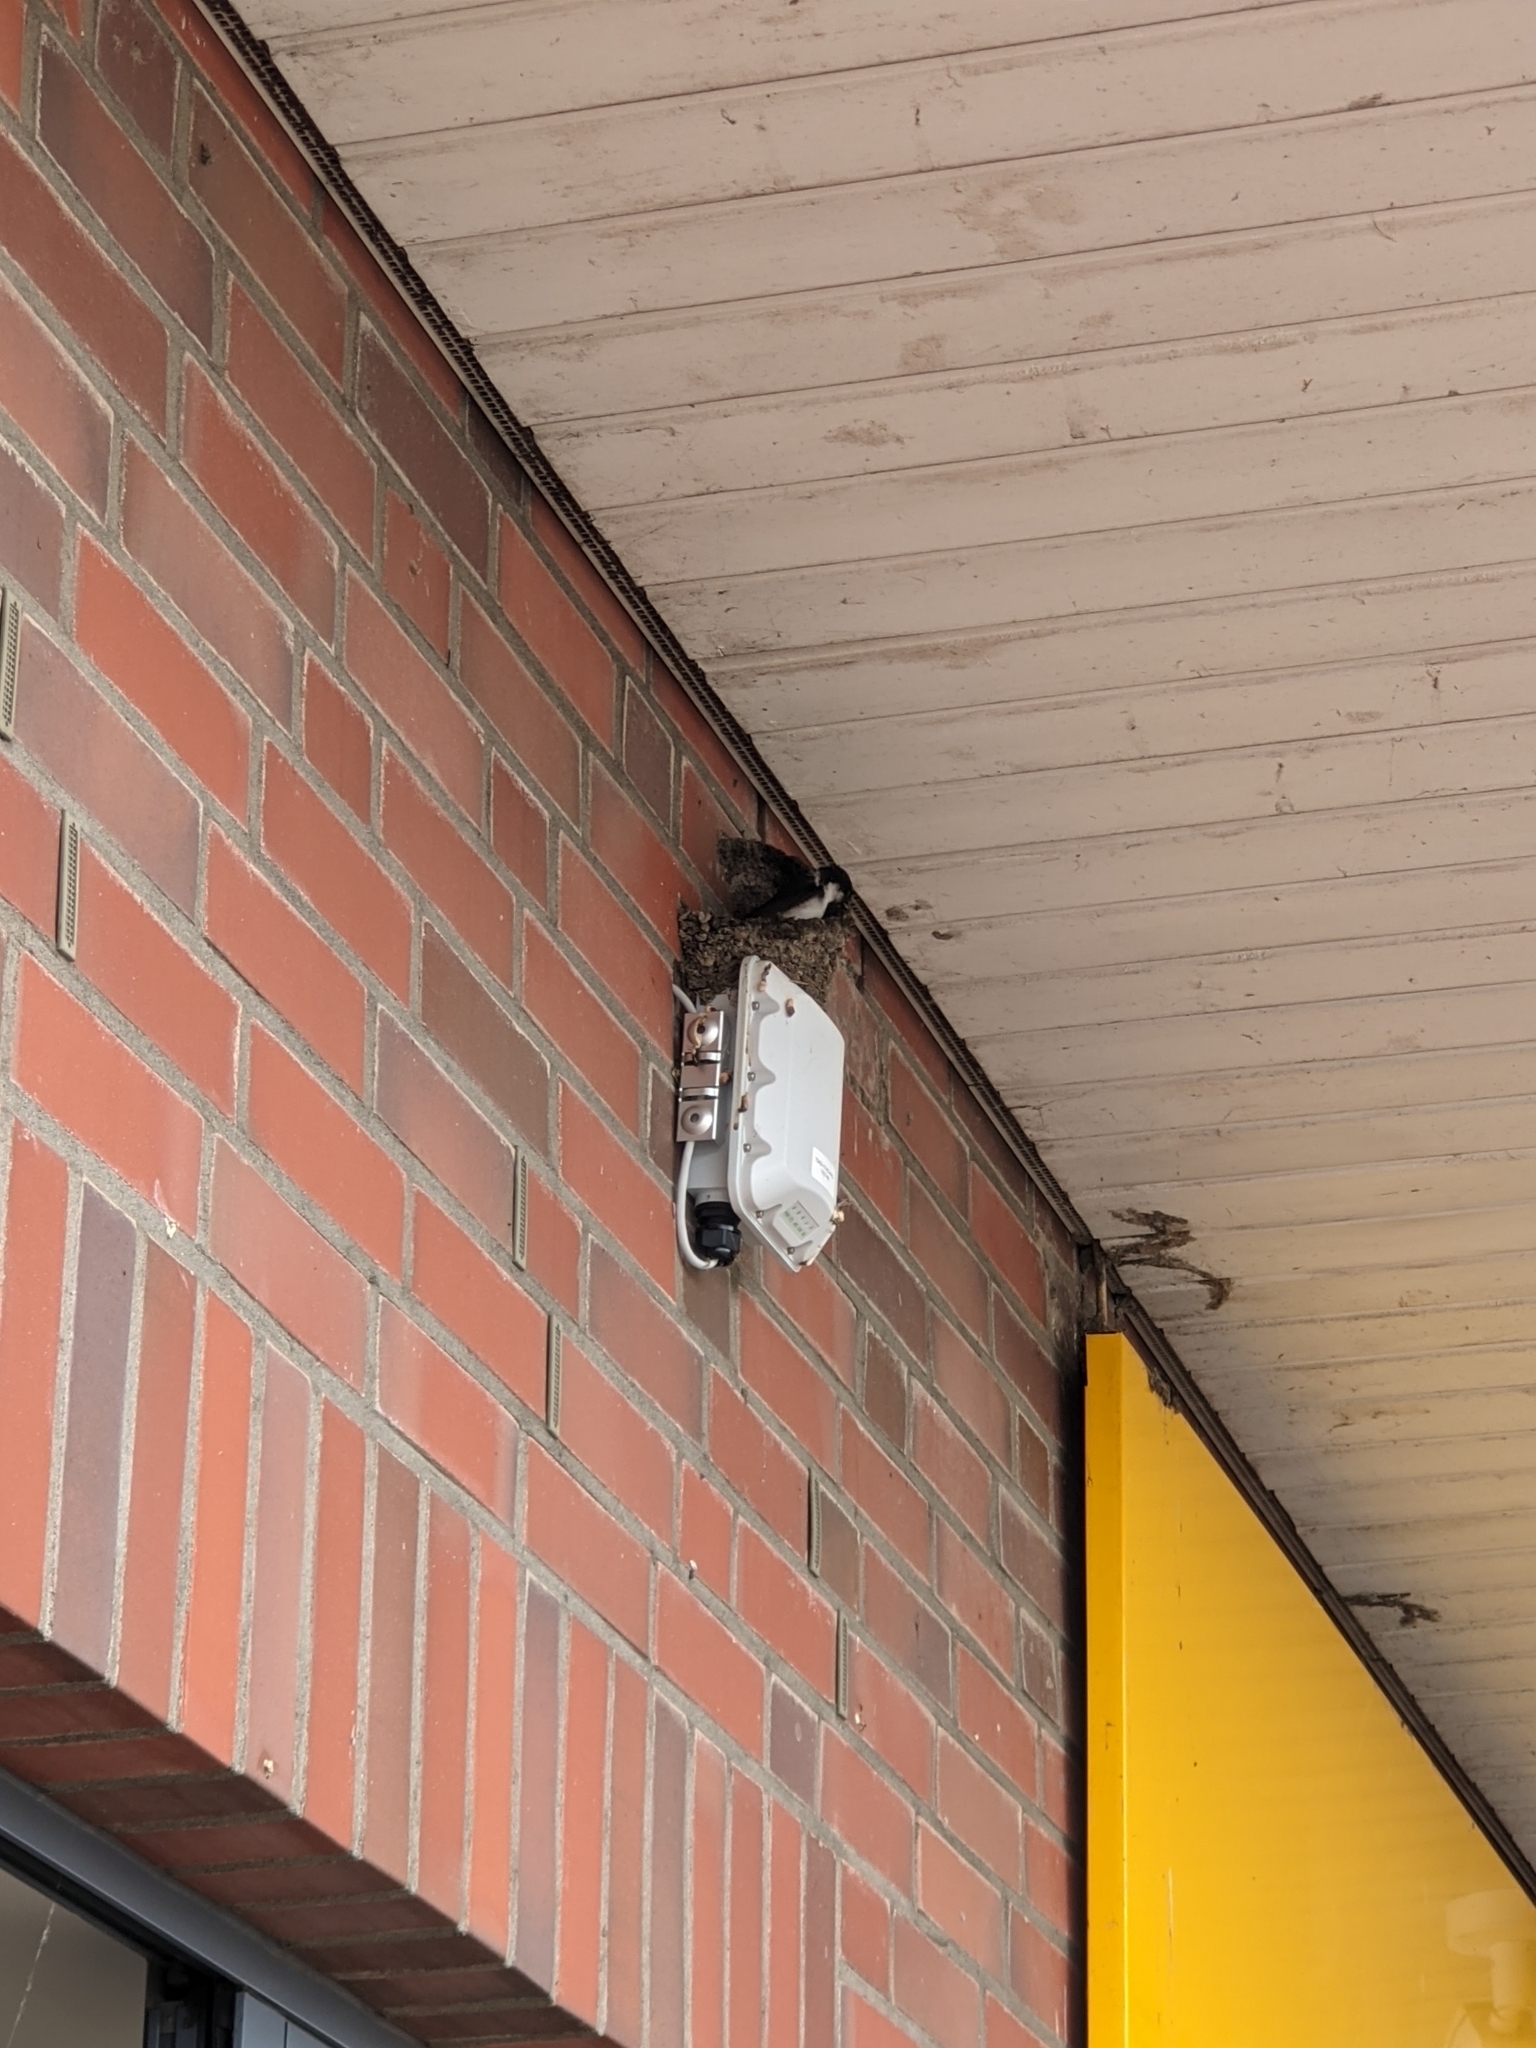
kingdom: Animalia
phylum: Chordata
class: Aves
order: Passeriformes
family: Hirundinidae
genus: Delichon
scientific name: Delichon urbicum
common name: Common house martin
